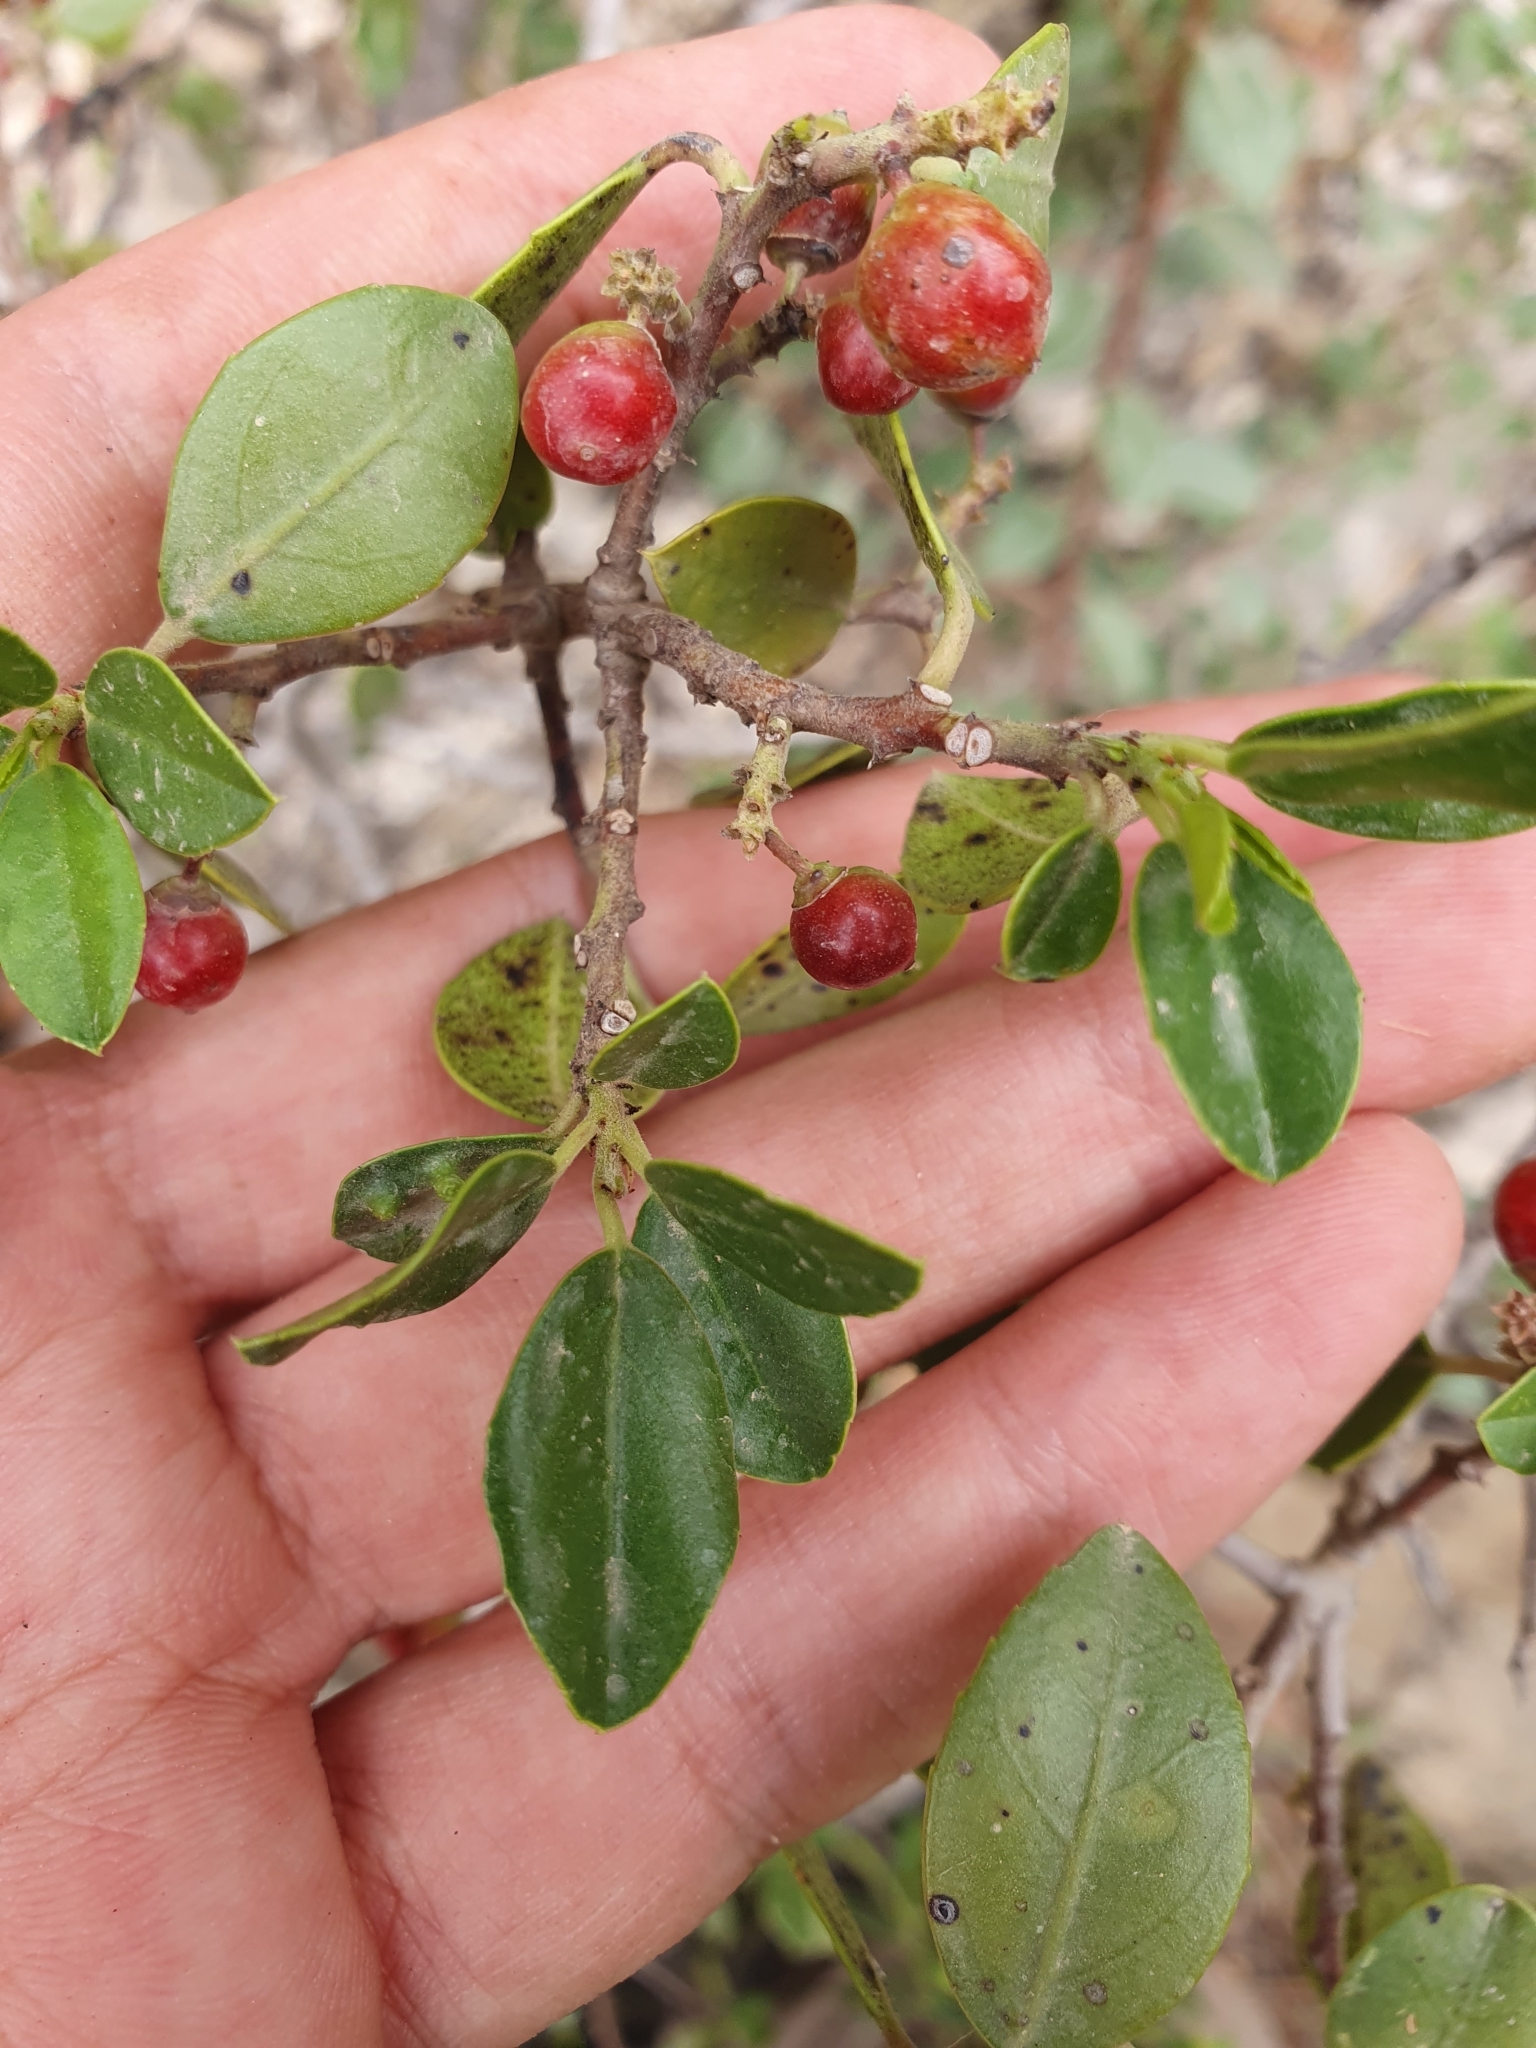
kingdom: Plantae
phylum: Tracheophyta
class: Magnoliopsida
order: Rosales
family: Rhamnaceae
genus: Rhamnus
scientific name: Rhamnus alaternus
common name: Mediterranean buckthorn
